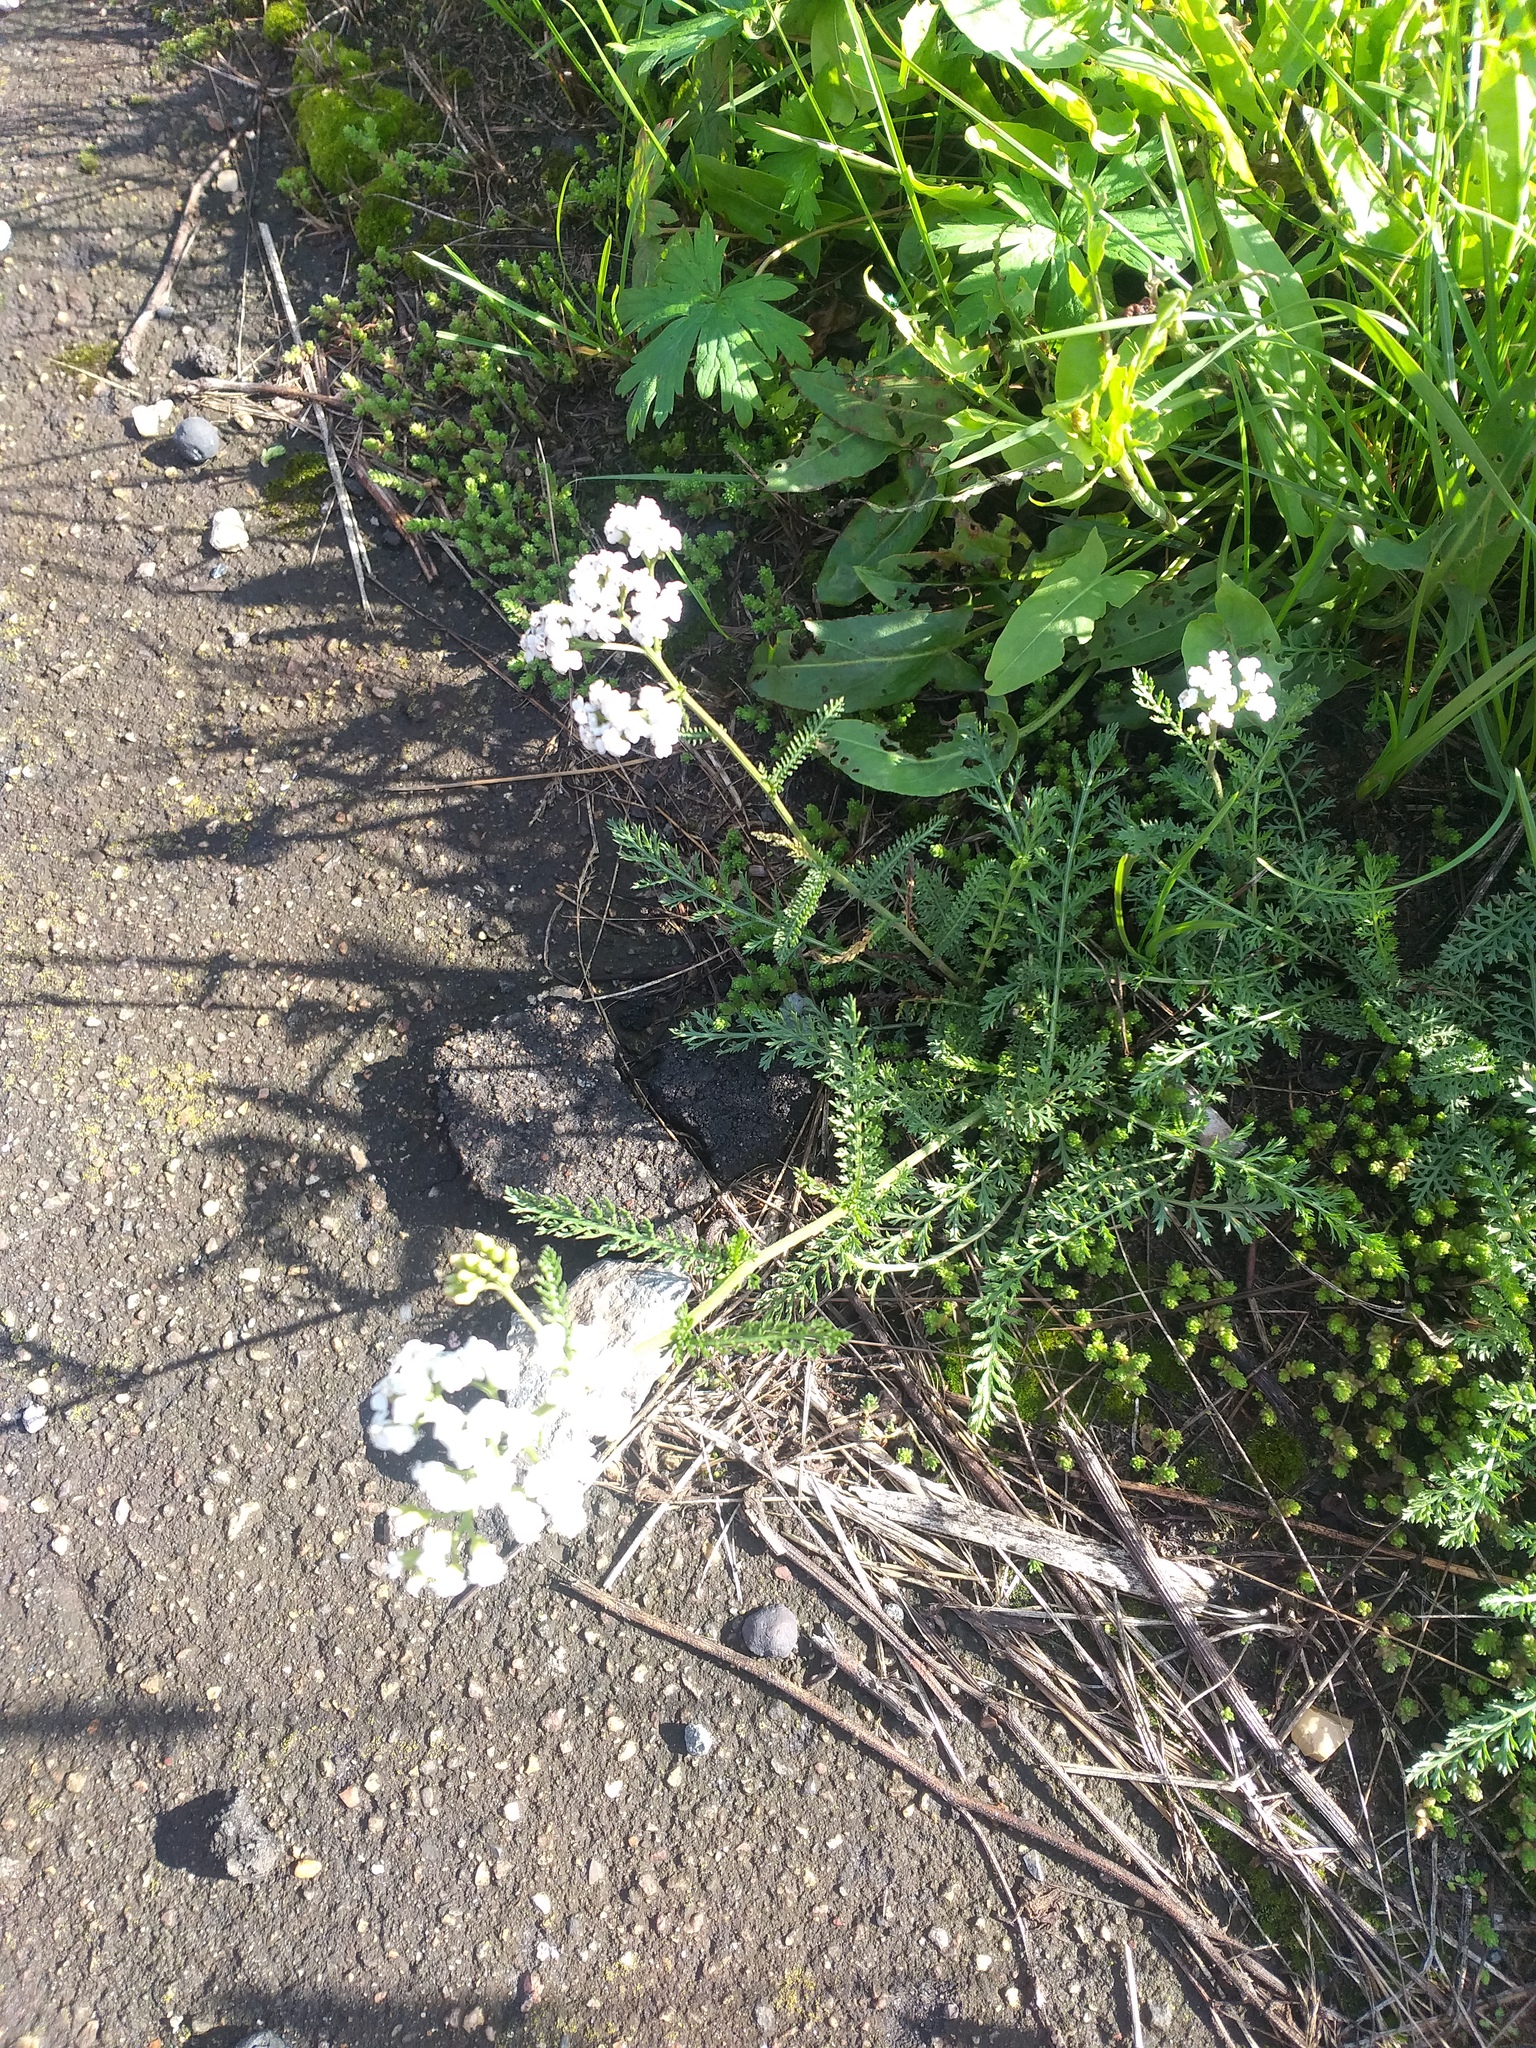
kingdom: Plantae
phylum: Tracheophyta
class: Magnoliopsida
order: Asterales
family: Asteraceae
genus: Achillea
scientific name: Achillea millefolium
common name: Yarrow
